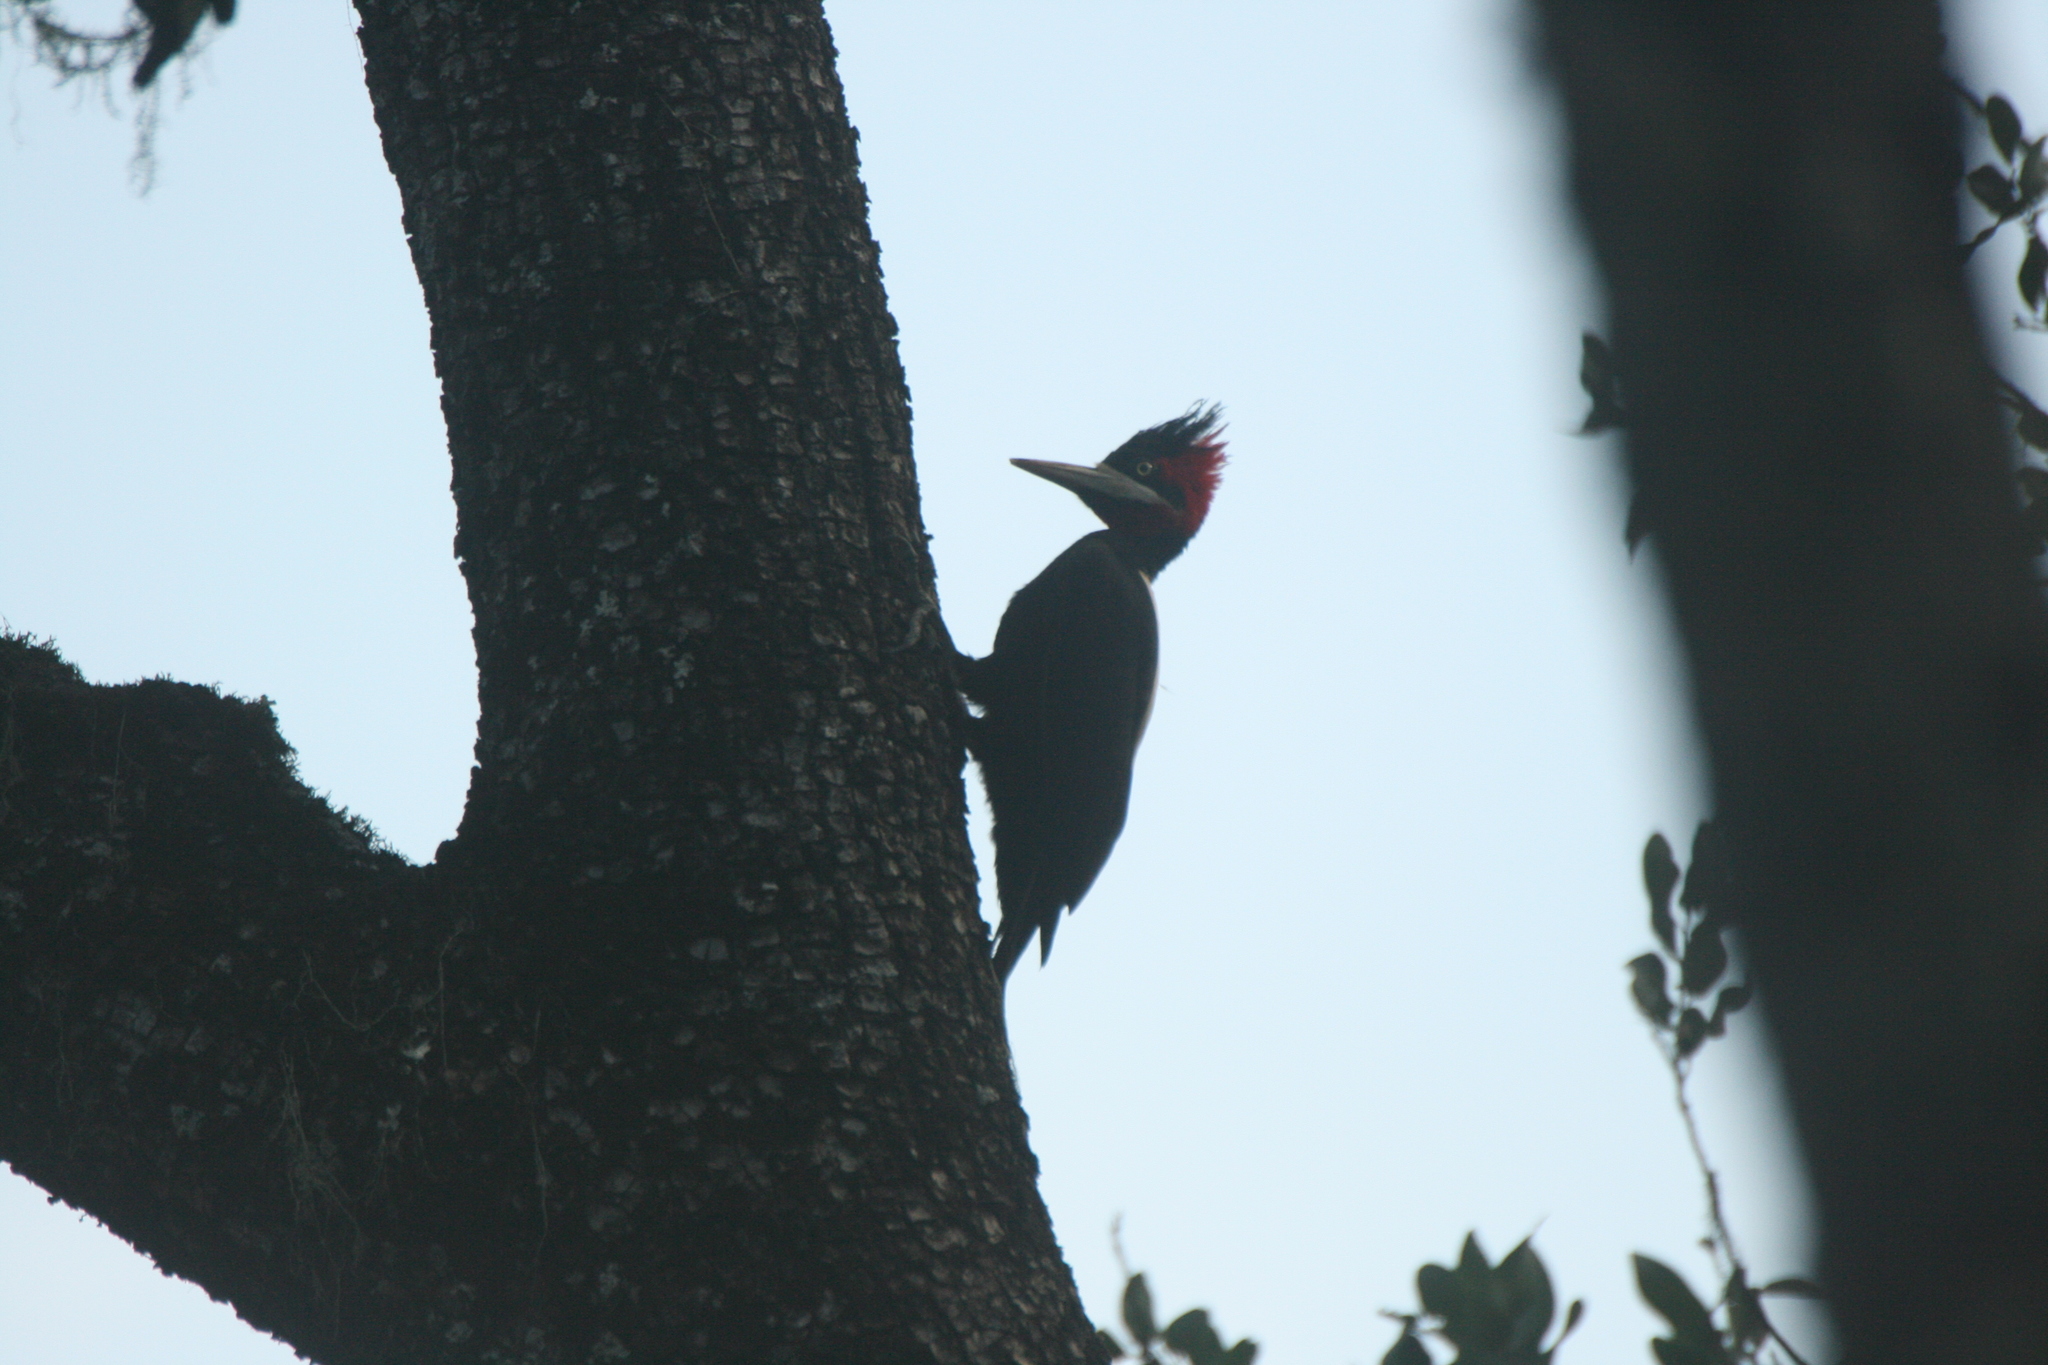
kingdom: Animalia
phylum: Chordata
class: Aves
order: Piciformes
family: Picidae
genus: Campephilus
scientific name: Campephilus leucopogon
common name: Cream-backed woodpecker
